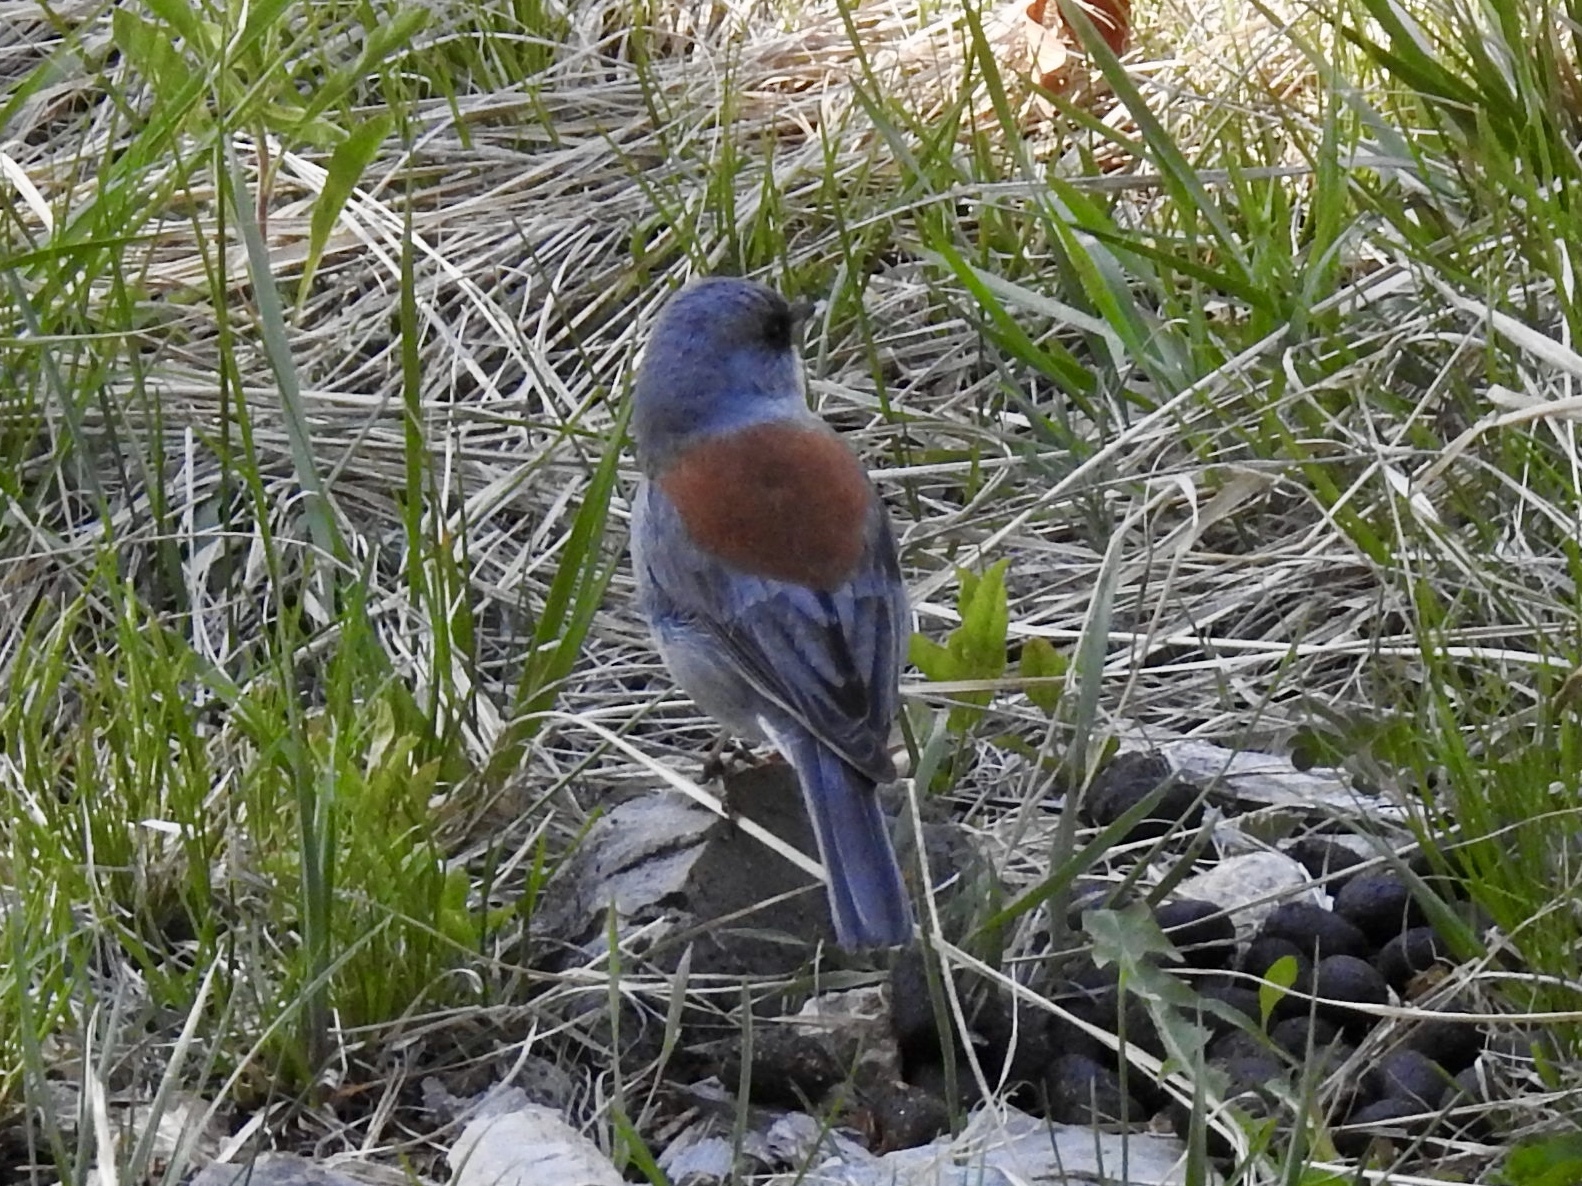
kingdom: Animalia
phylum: Chordata
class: Aves
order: Passeriformes
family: Passerellidae
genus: Junco
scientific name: Junco hyemalis
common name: Dark-eyed junco
